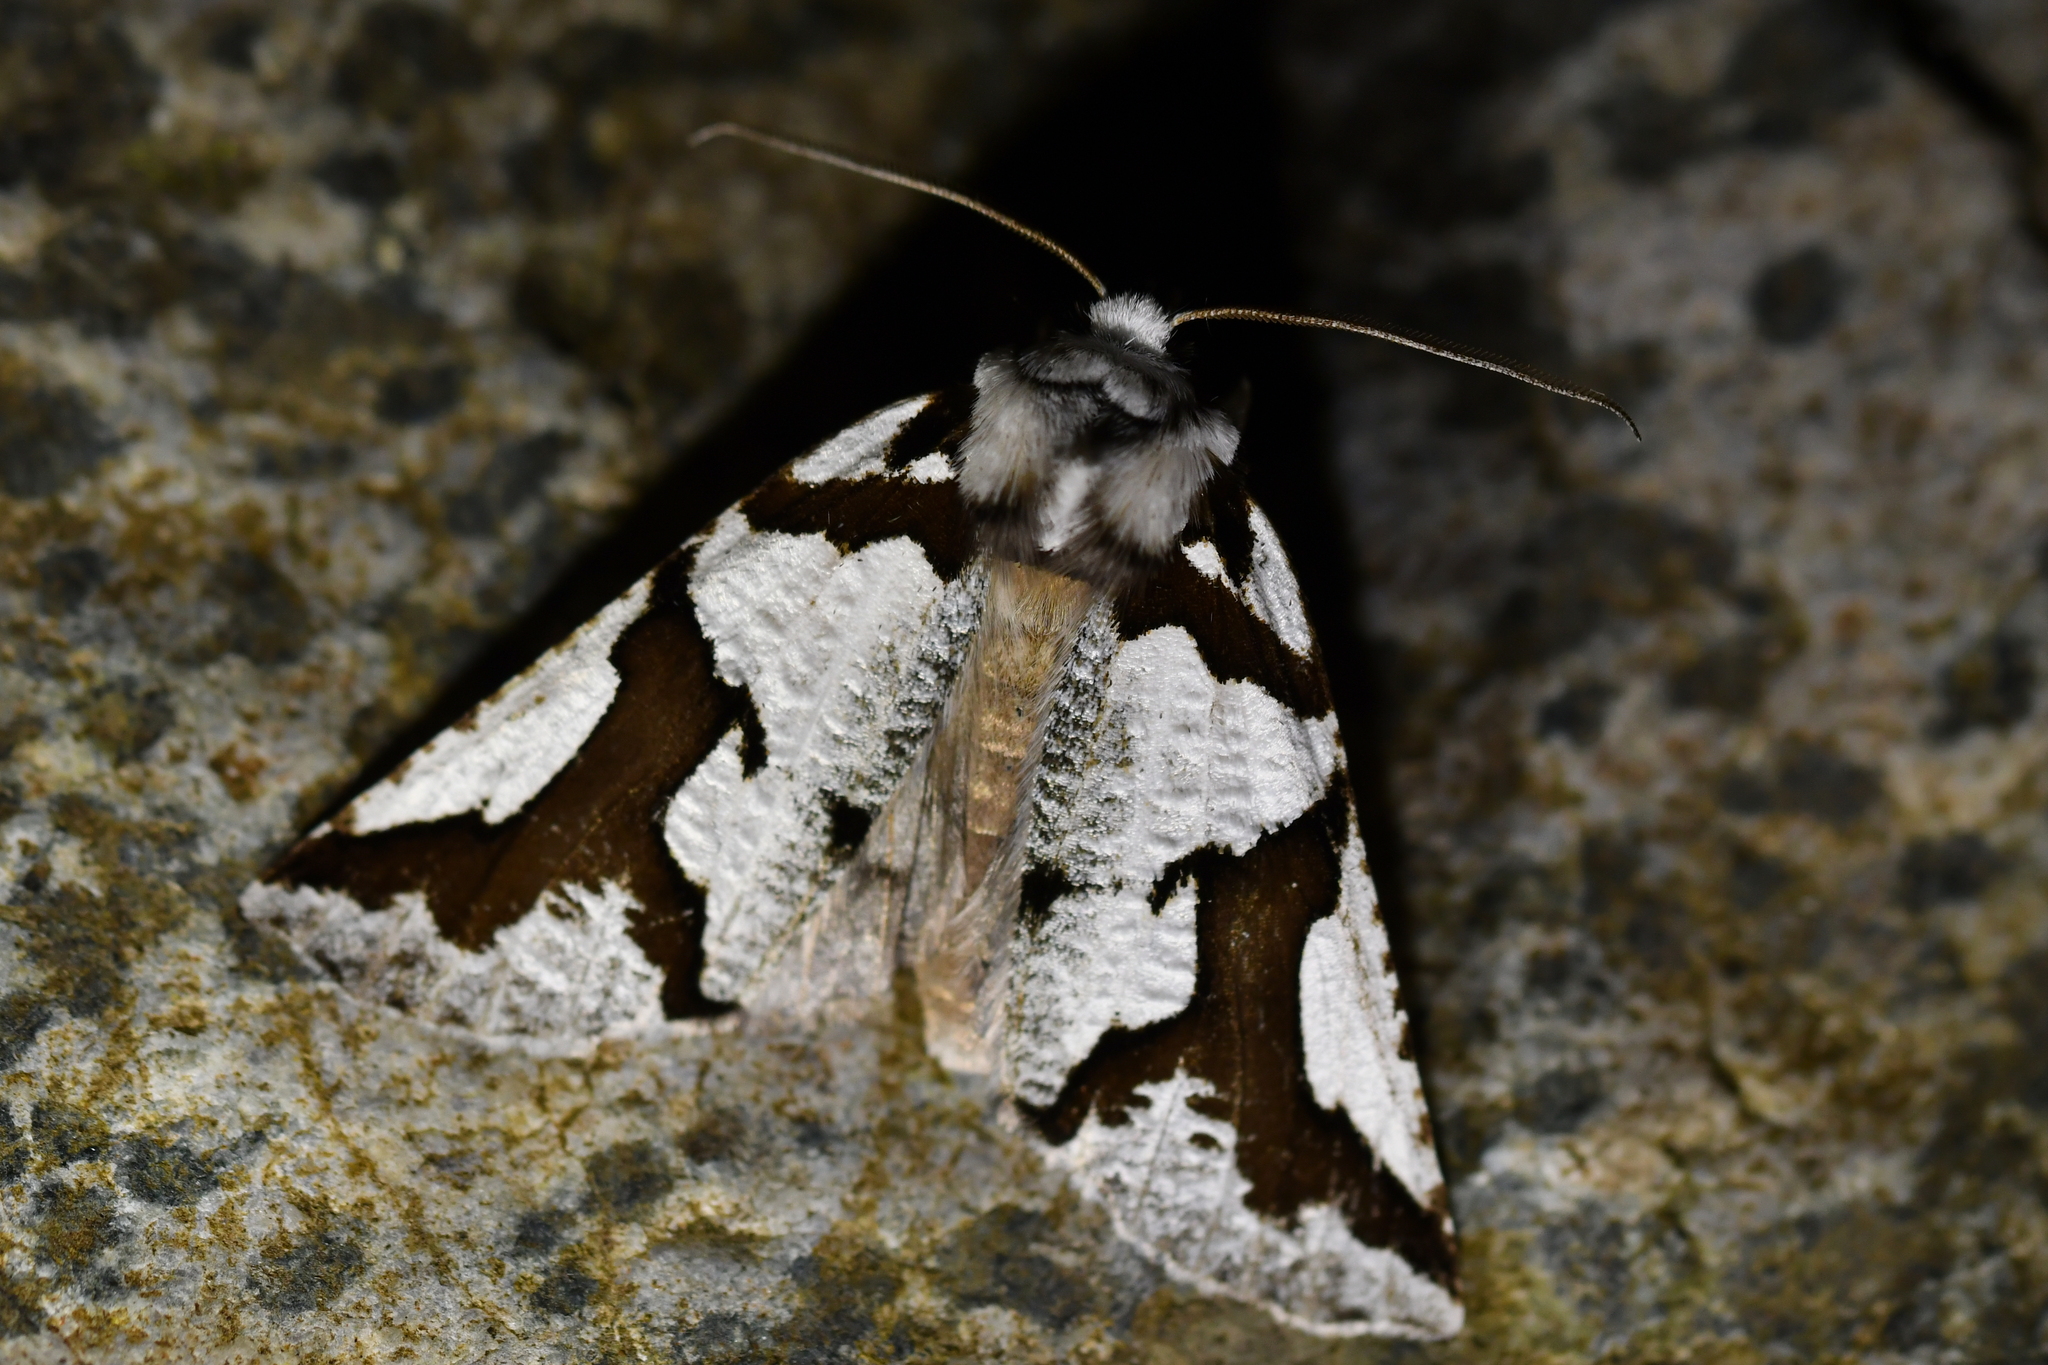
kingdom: Animalia
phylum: Arthropoda
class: Insecta
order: Lepidoptera
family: Geometridae
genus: Declana
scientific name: Declana
